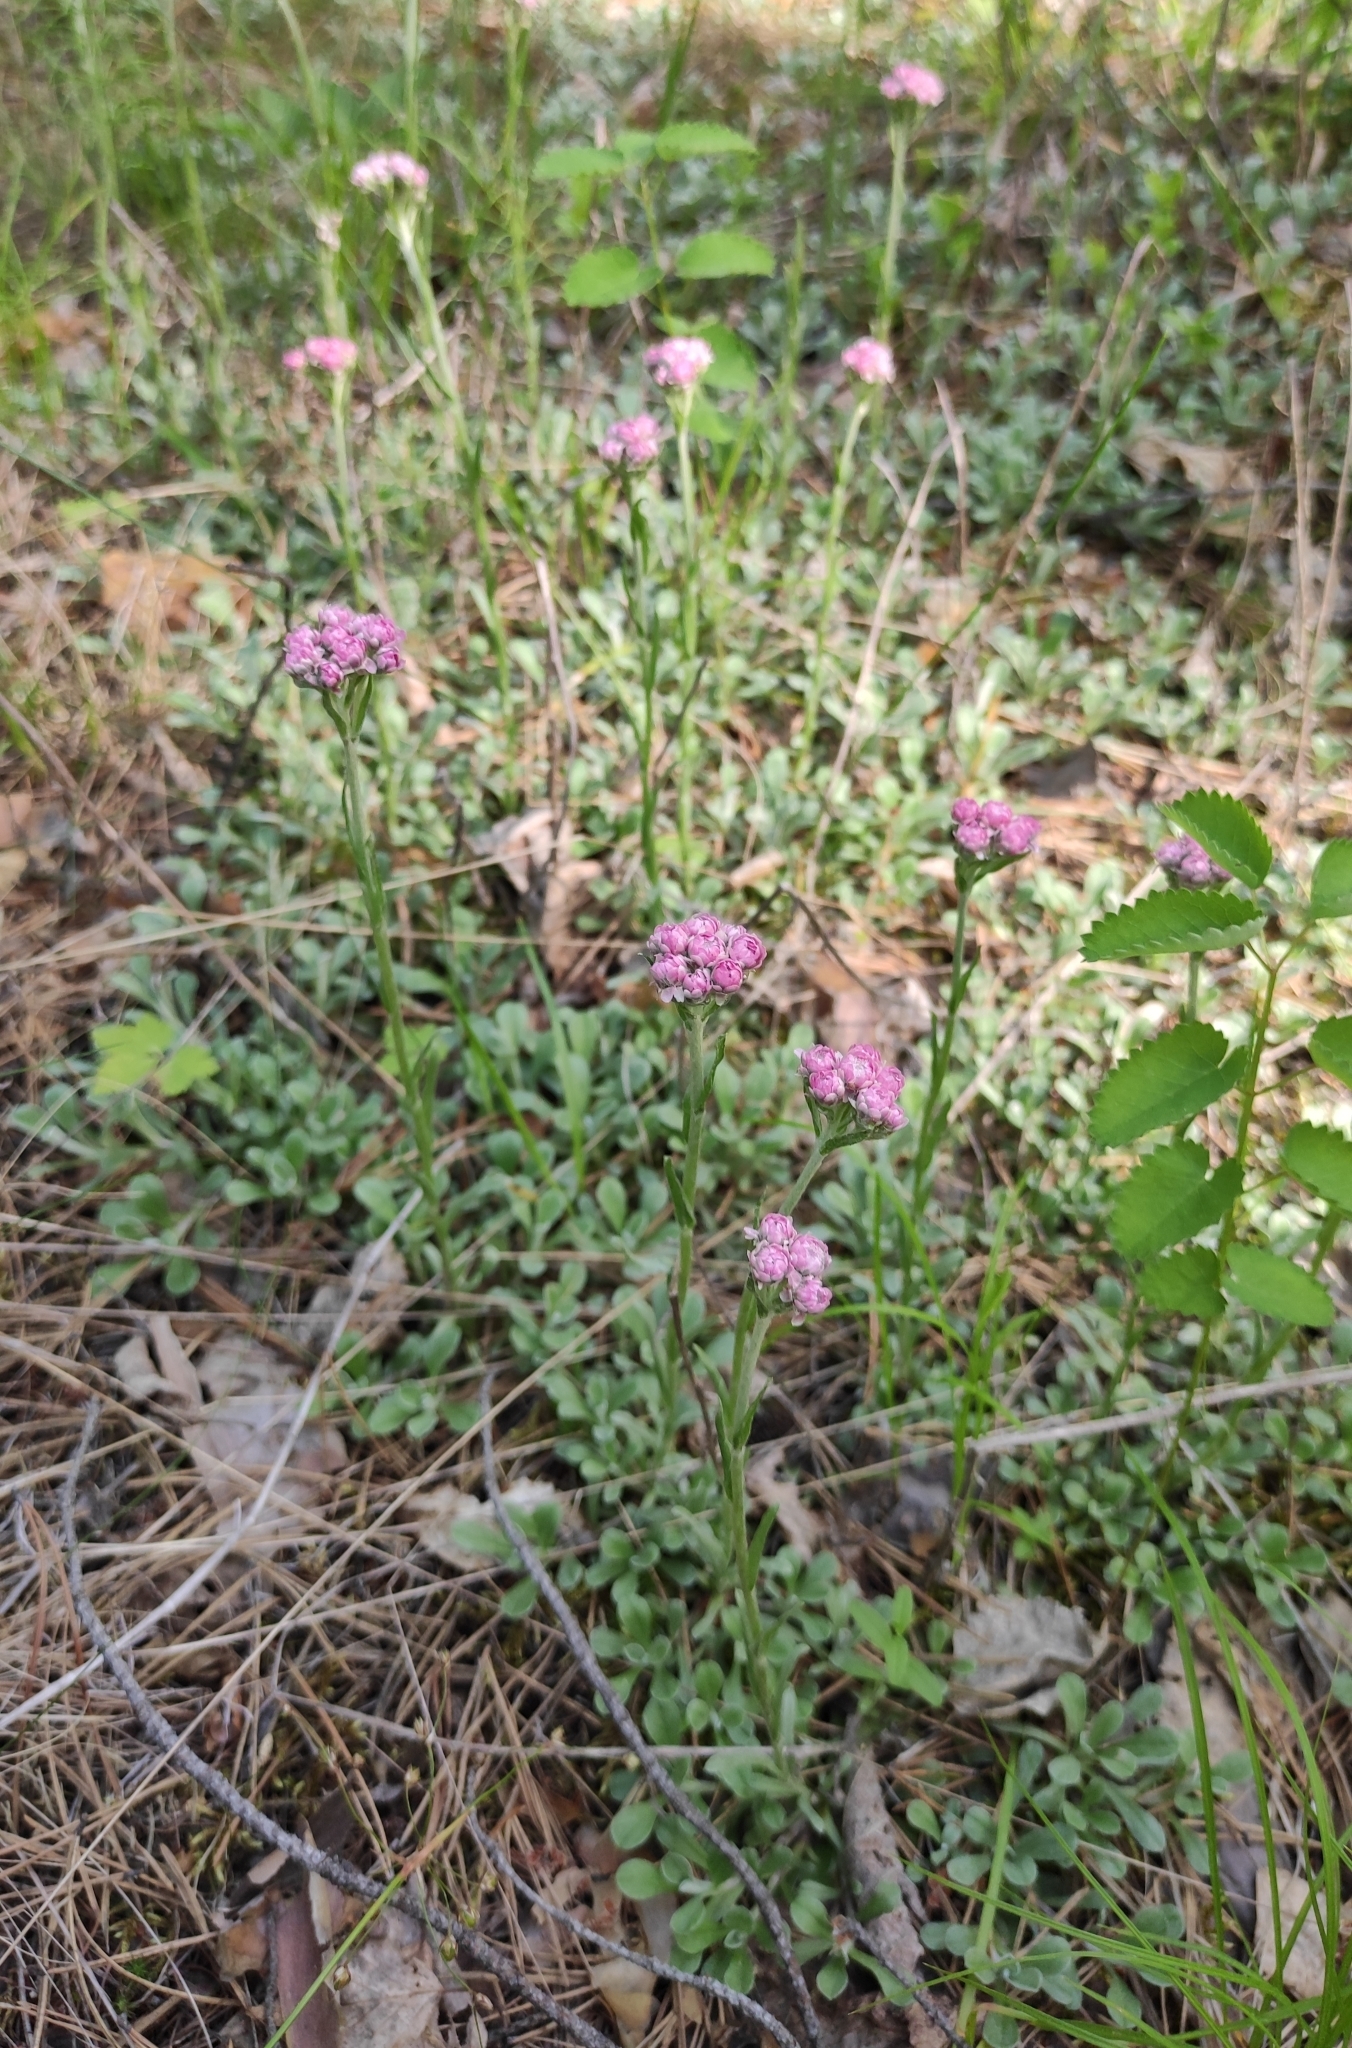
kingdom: Plantae
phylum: Tracheophyta
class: Magnoliopsida
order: Asterales
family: Asteraceae
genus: Antennaria
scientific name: Antennaria dioica
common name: Mountain everlasting
